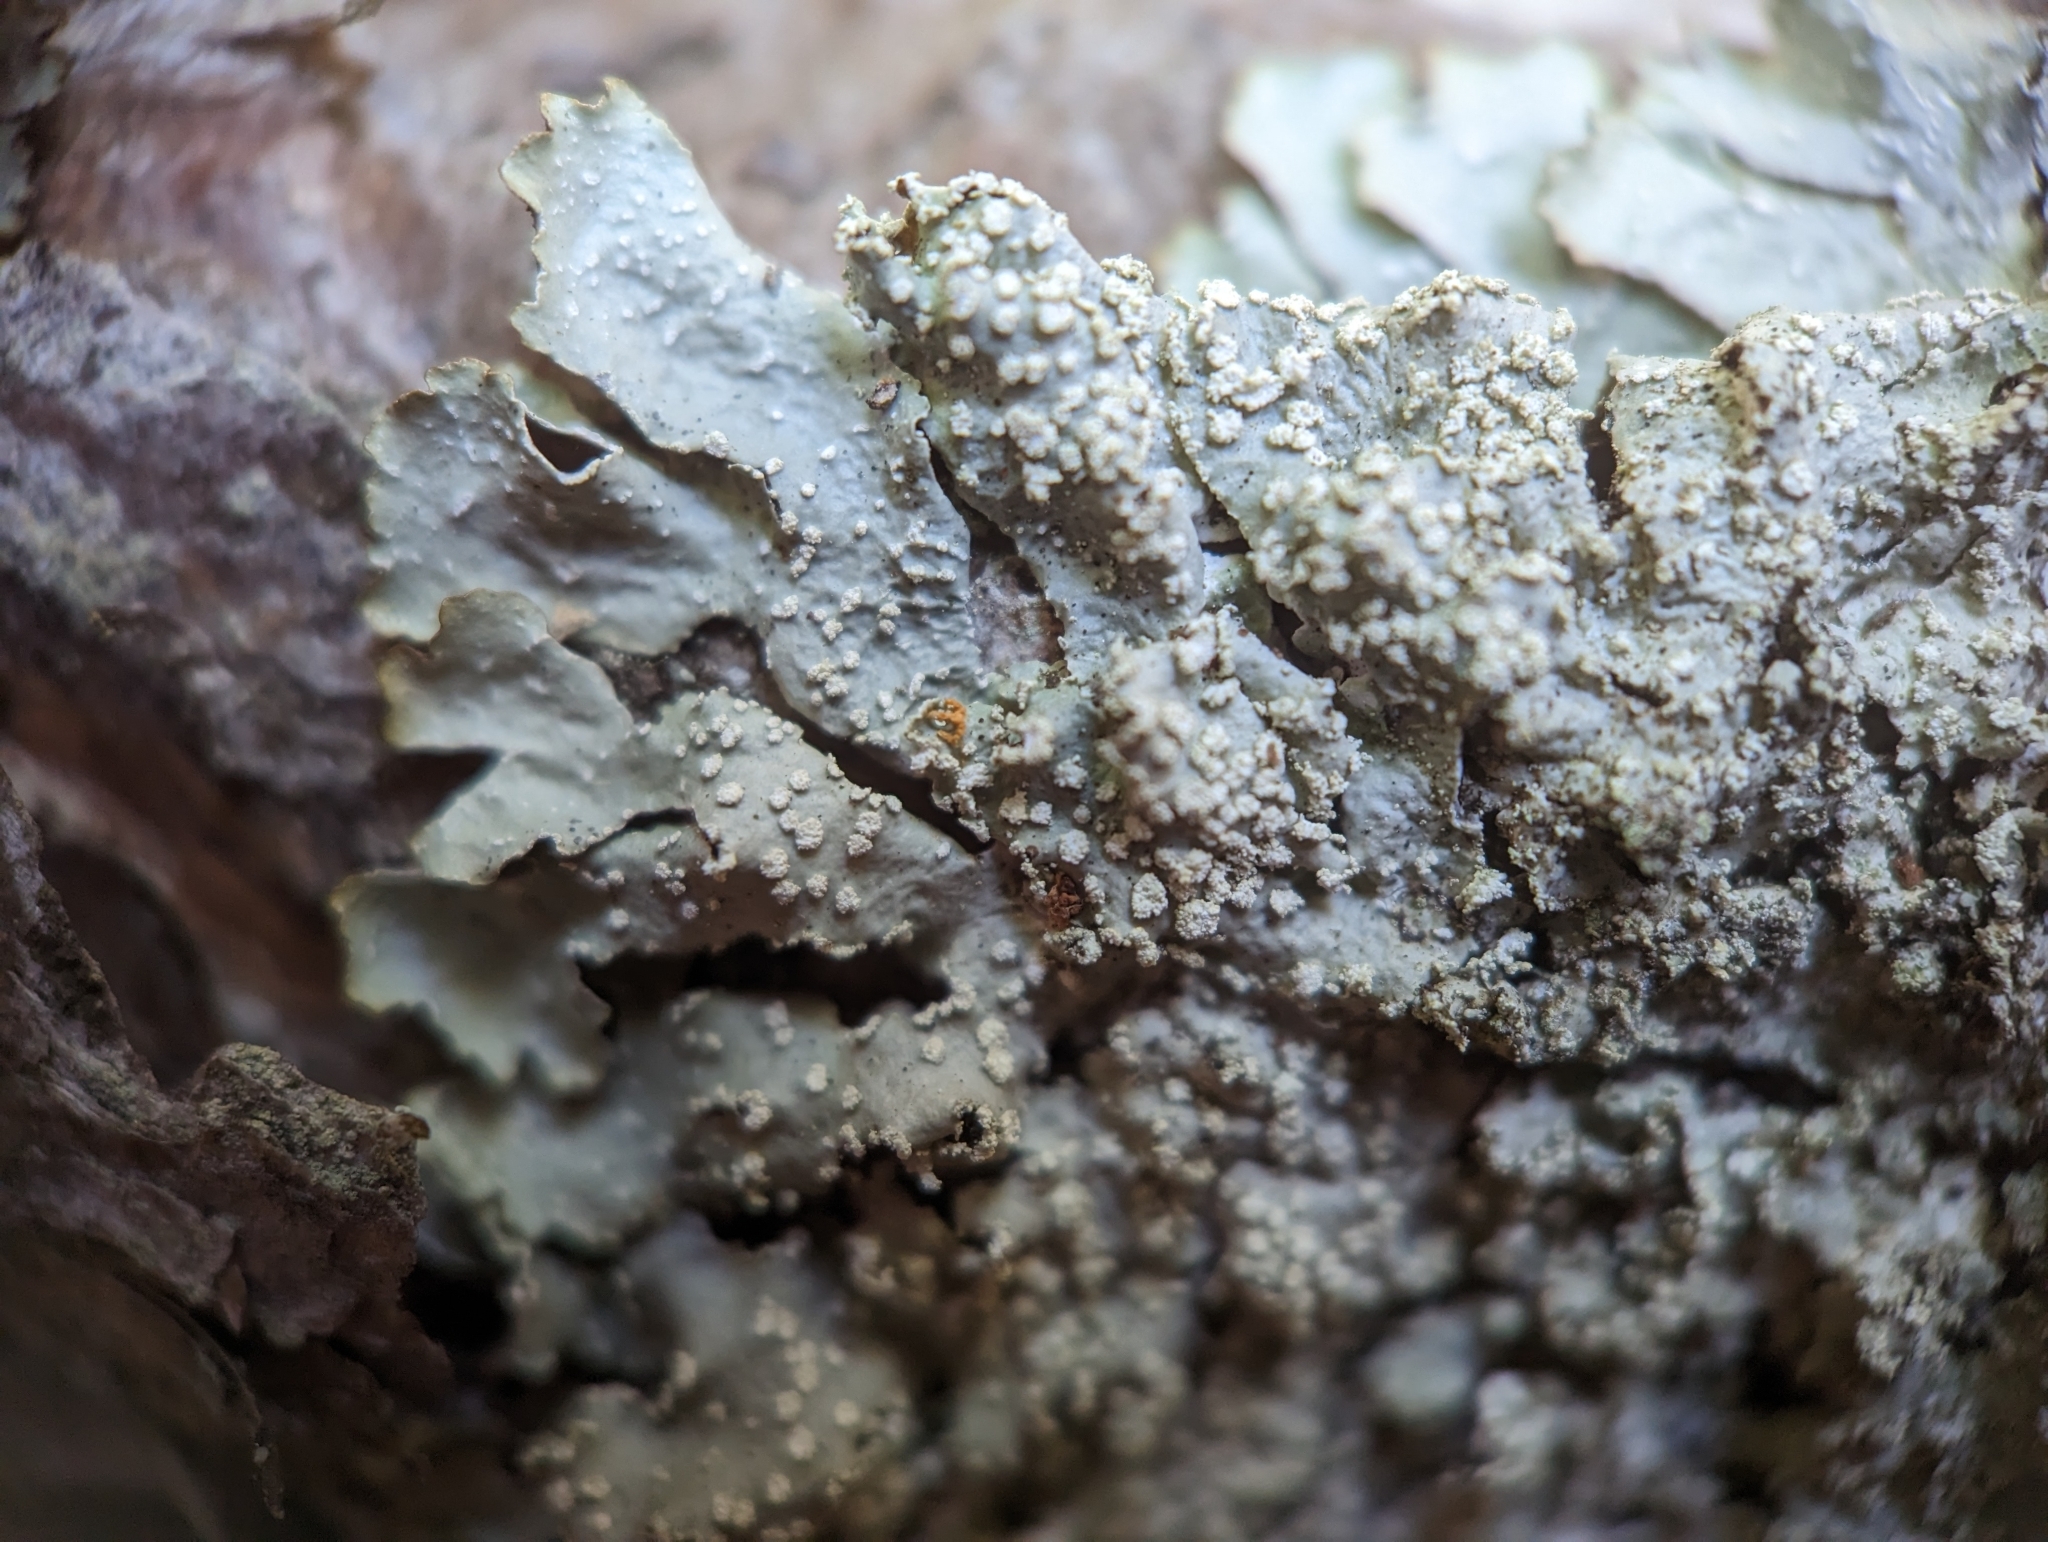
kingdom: Fungi
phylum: Ascomycota
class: Lecanoromycetes
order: Lecanorales
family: Parmeliaceae
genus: Punctelia
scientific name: Punctelia caseana
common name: Moondust speckled lichen
